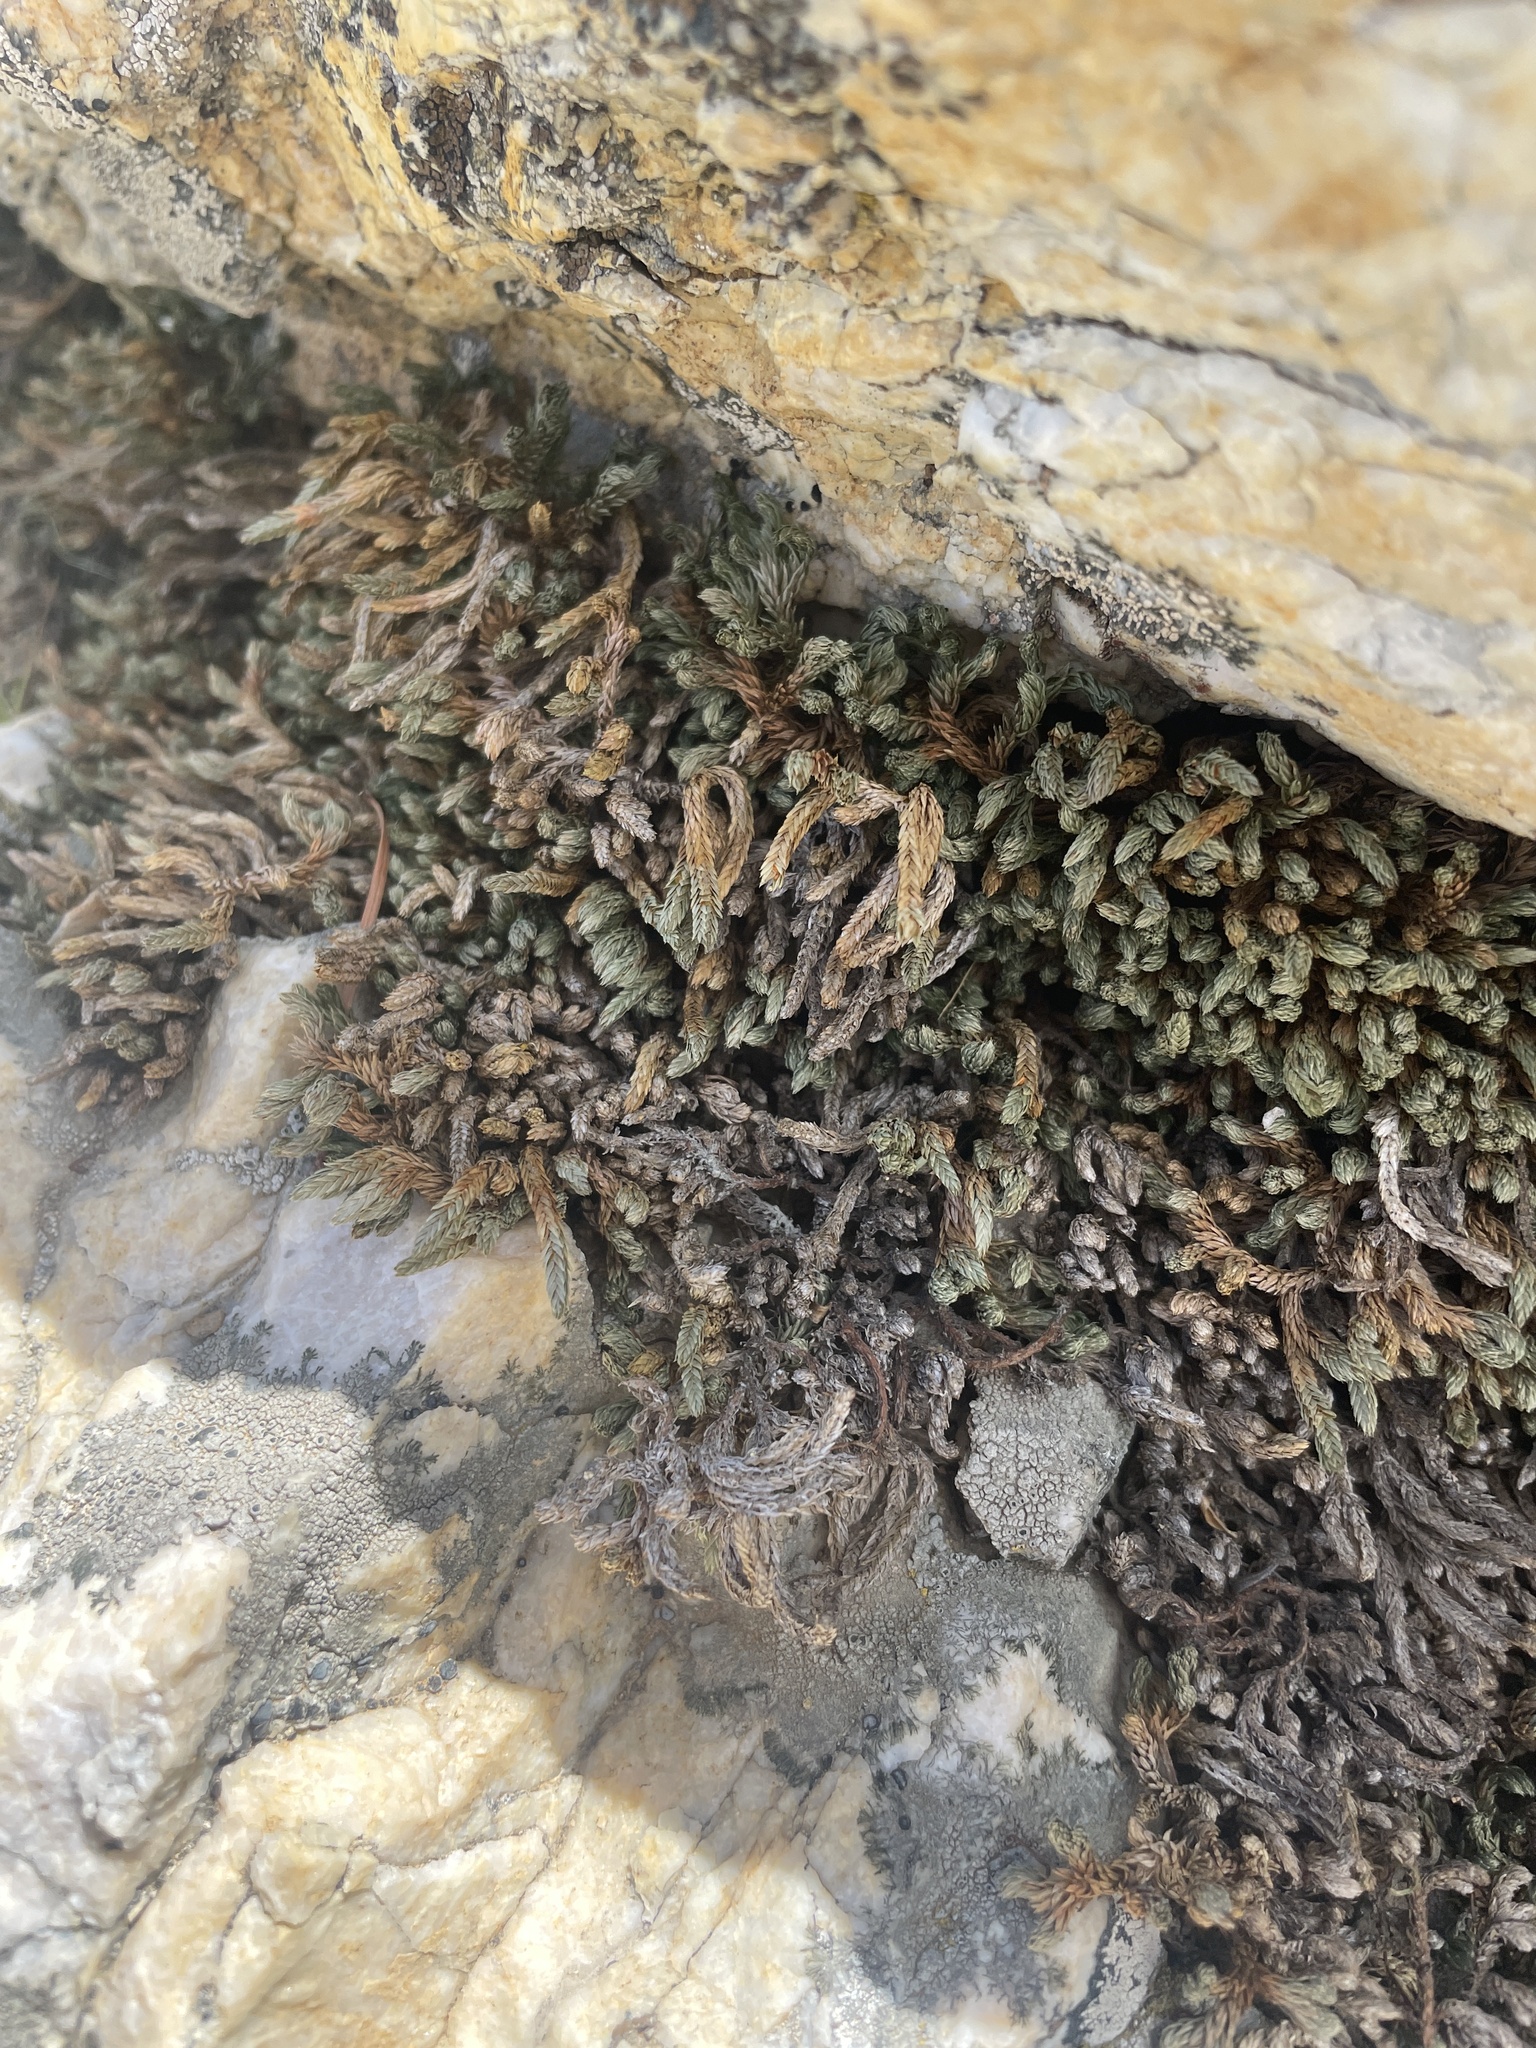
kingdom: Plantae
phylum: Tracheophyta
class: Lycopodiopsida
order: Selaginellales
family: Selaginellaceae
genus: Selaginella
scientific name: Selaginella watsonii
